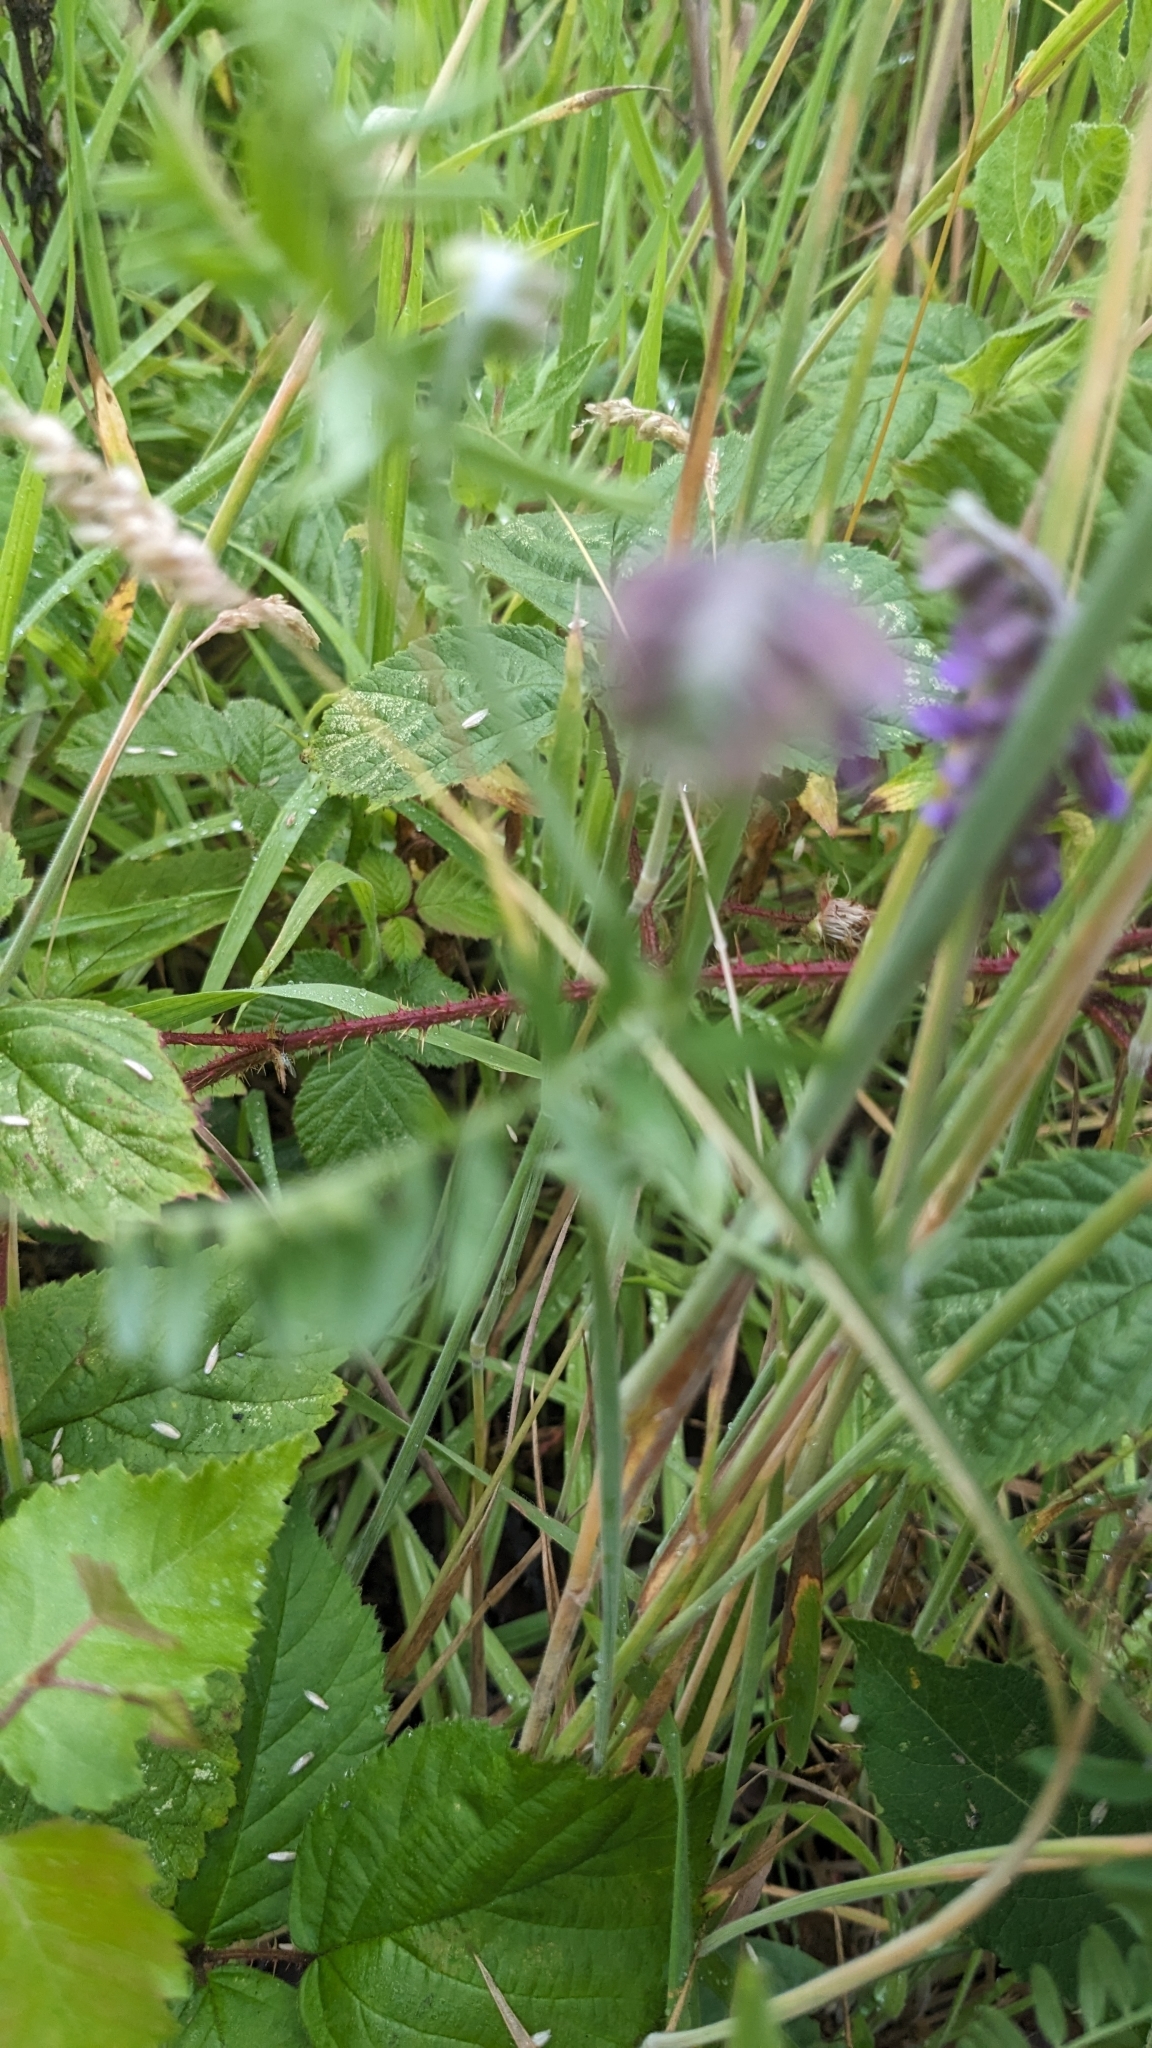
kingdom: Plantae
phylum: Tracheophyta
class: Magnoliopsida
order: Fabales
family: Fabaceae
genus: Vicia
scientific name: Vicia cracca
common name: Bird vetch
